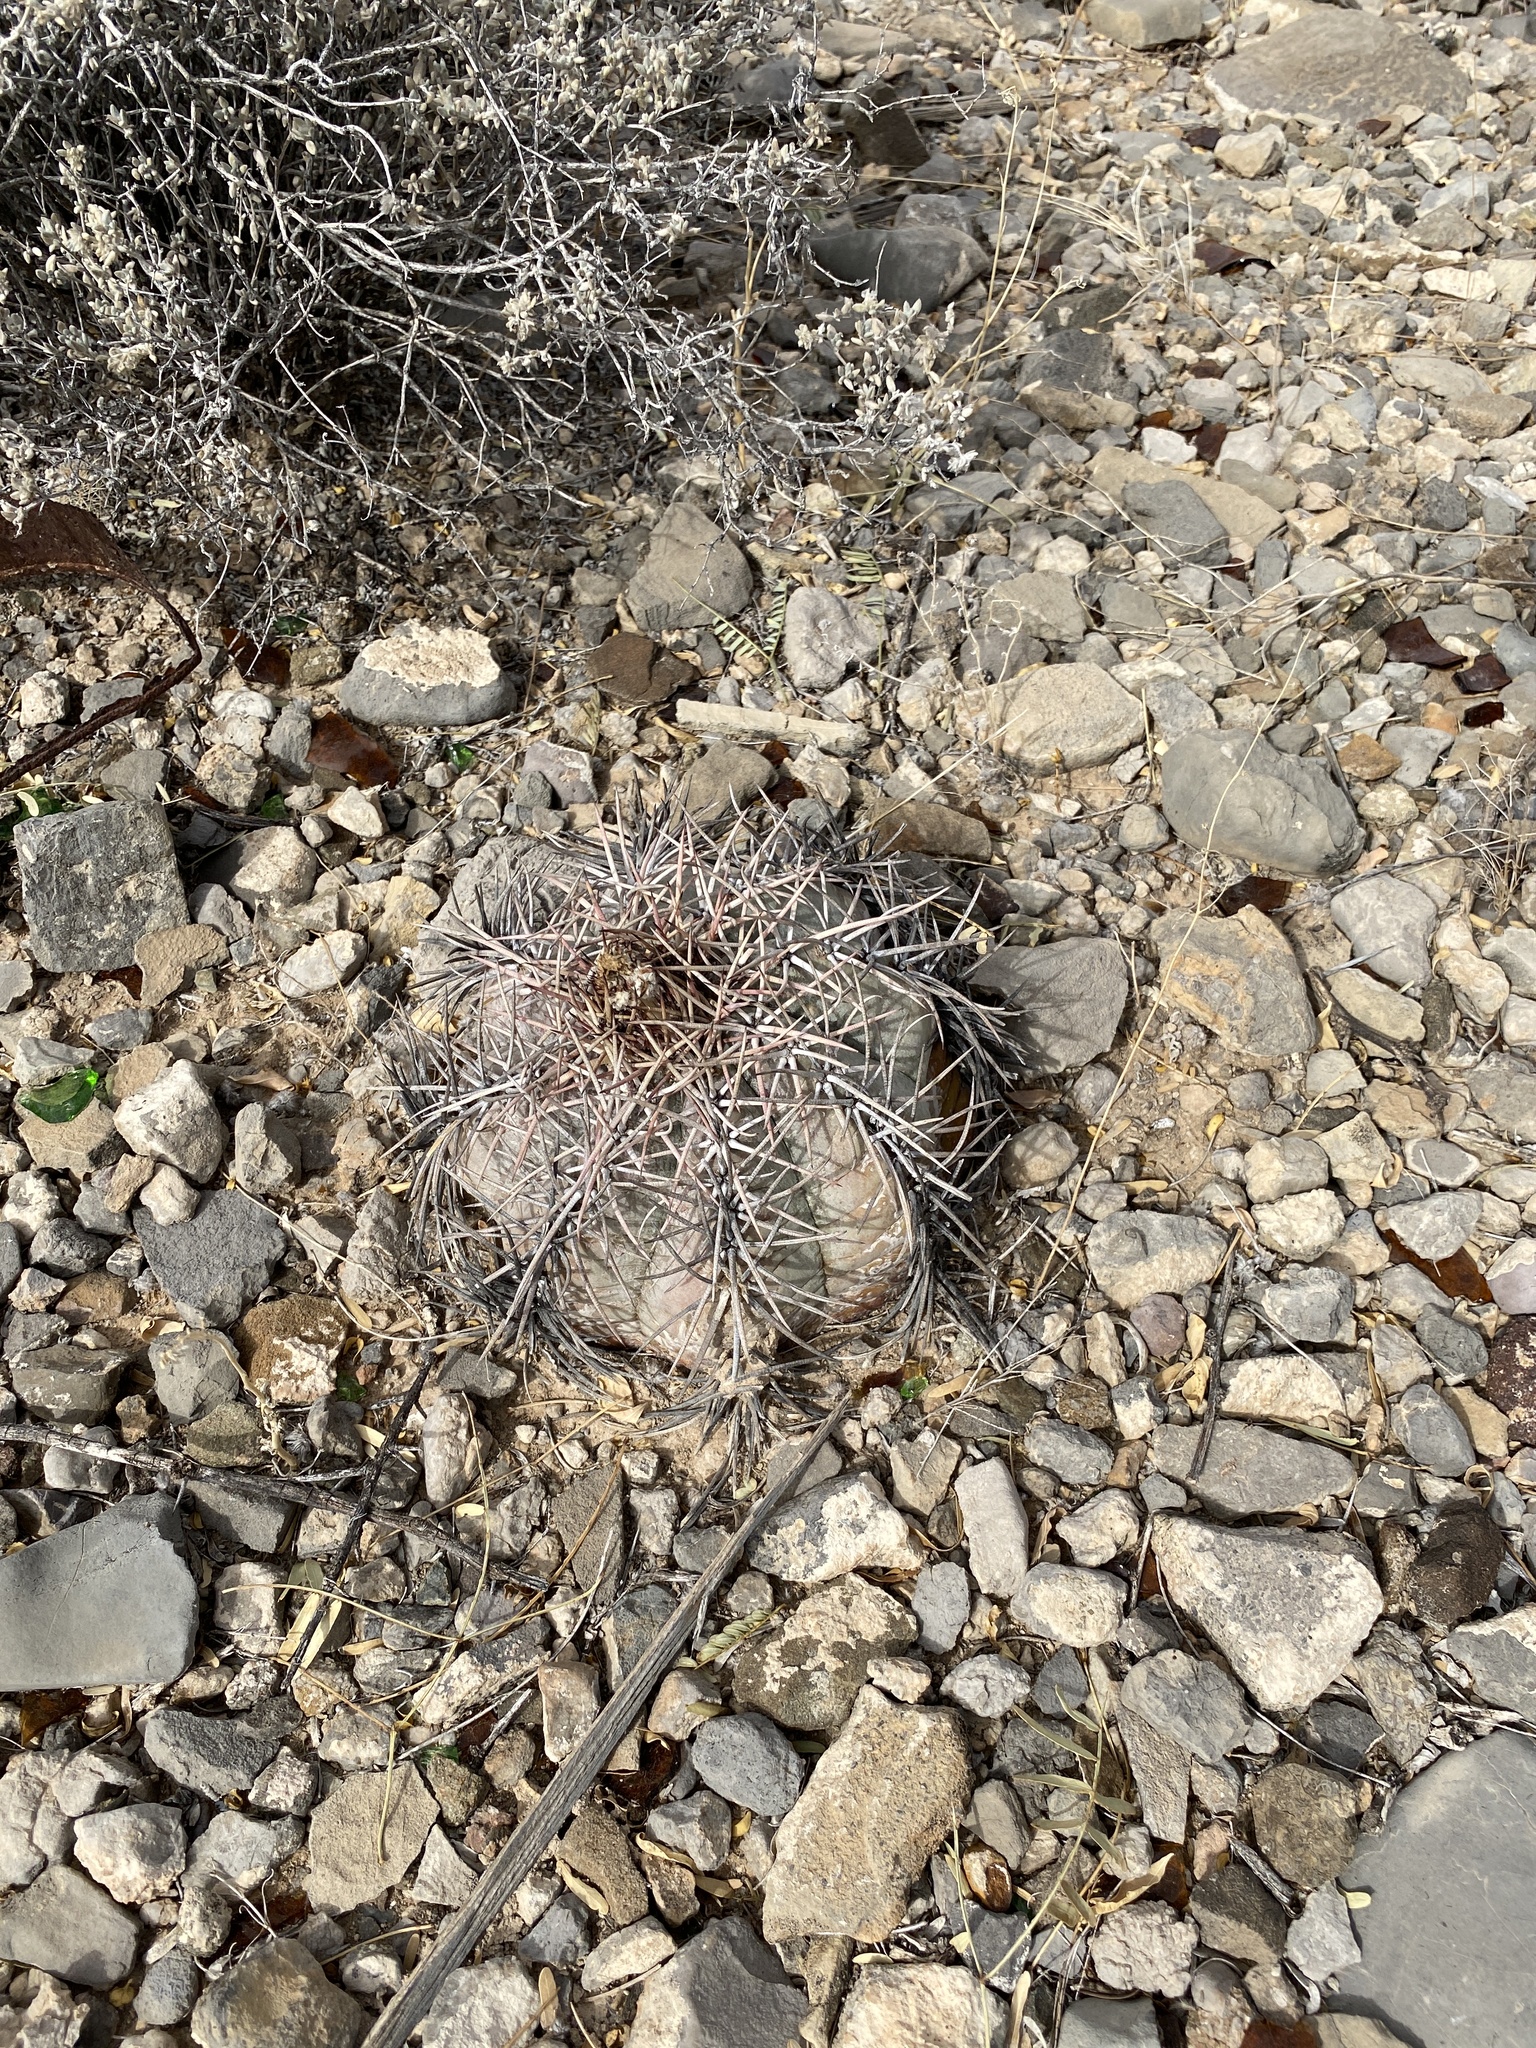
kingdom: Plantae
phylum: Tracheophyta
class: Magnoliopsida
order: Caryophyllales
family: Cactaceae
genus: Echinocactus
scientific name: Echinocactus horizonthalonius
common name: Devilshead
